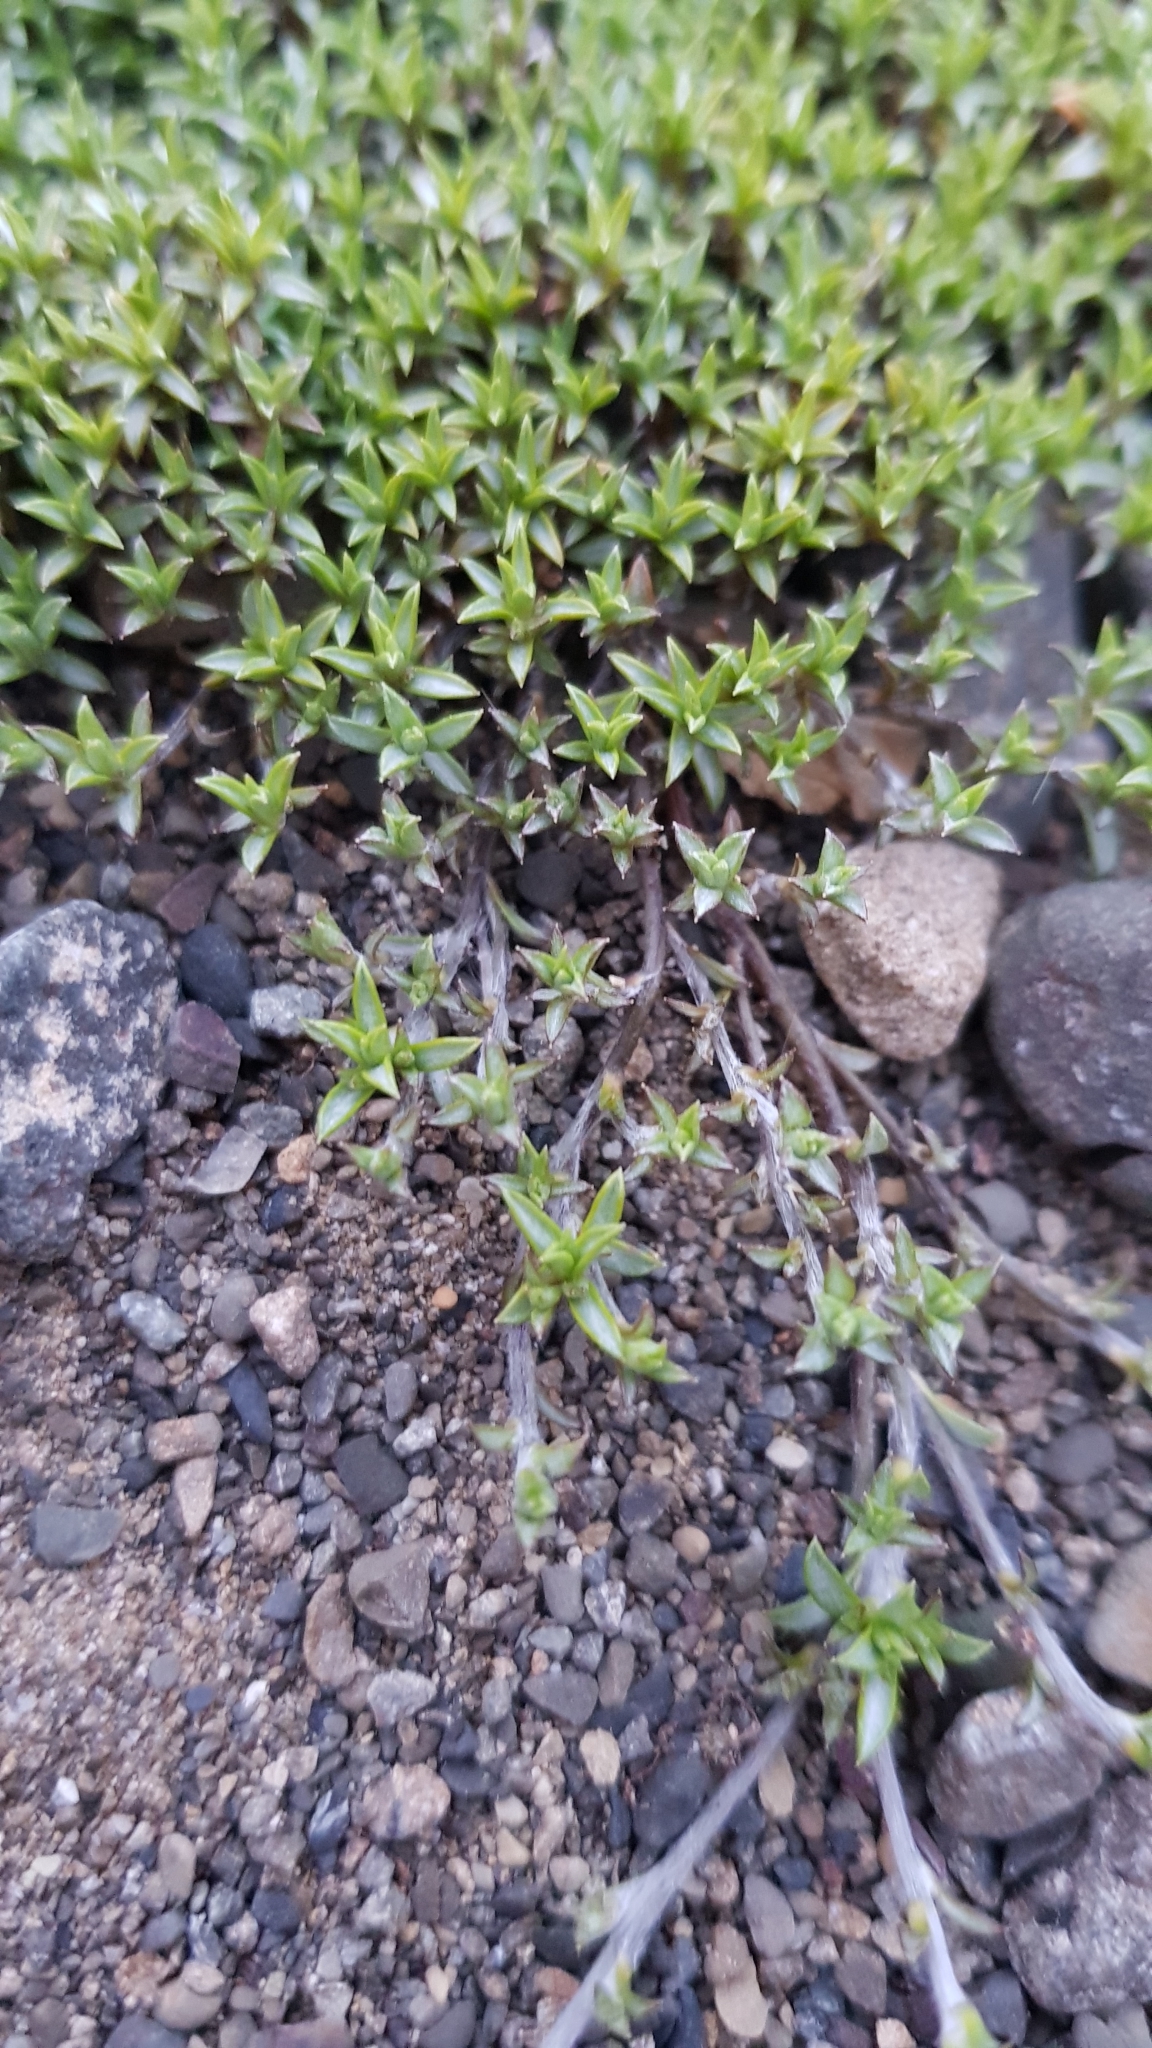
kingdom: Plantae
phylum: Tracheophyta
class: Magnoliopsida
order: Asterales
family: Asteraceae
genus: Raoulia
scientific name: Raoulia tenuicaulis
